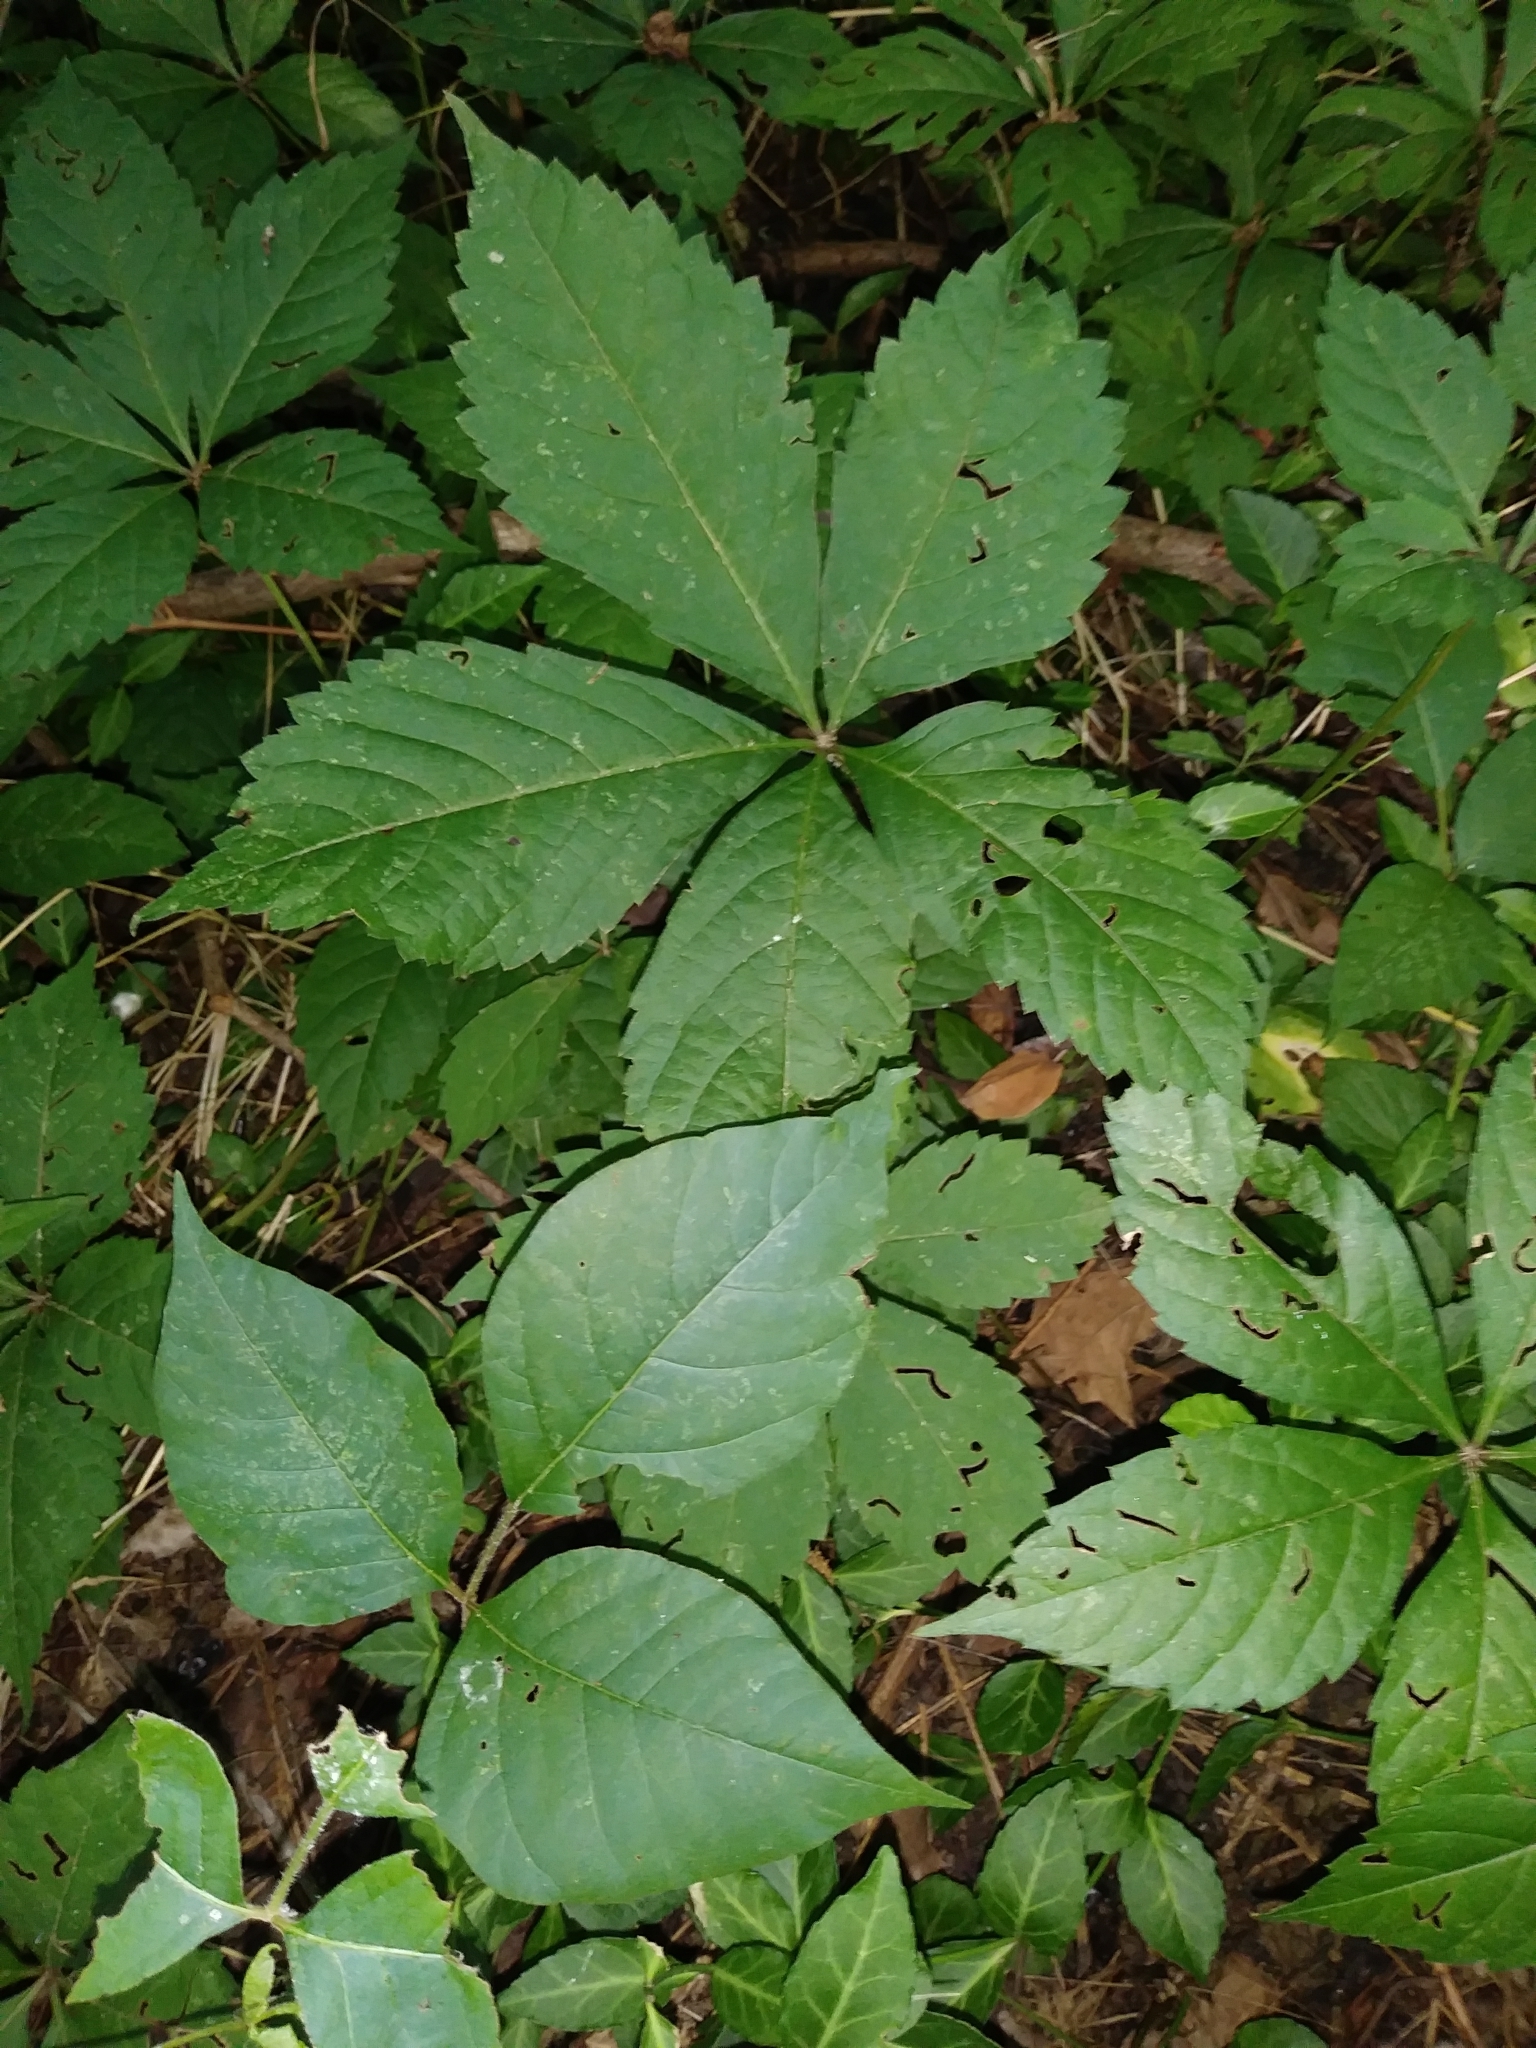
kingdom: Plantae
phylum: Tracheophyta
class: Magnoliopsida
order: Sapindales
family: Anacardiaceae
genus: Toxicodendron
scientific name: Toxicodendron radicans
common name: Poison ivy
